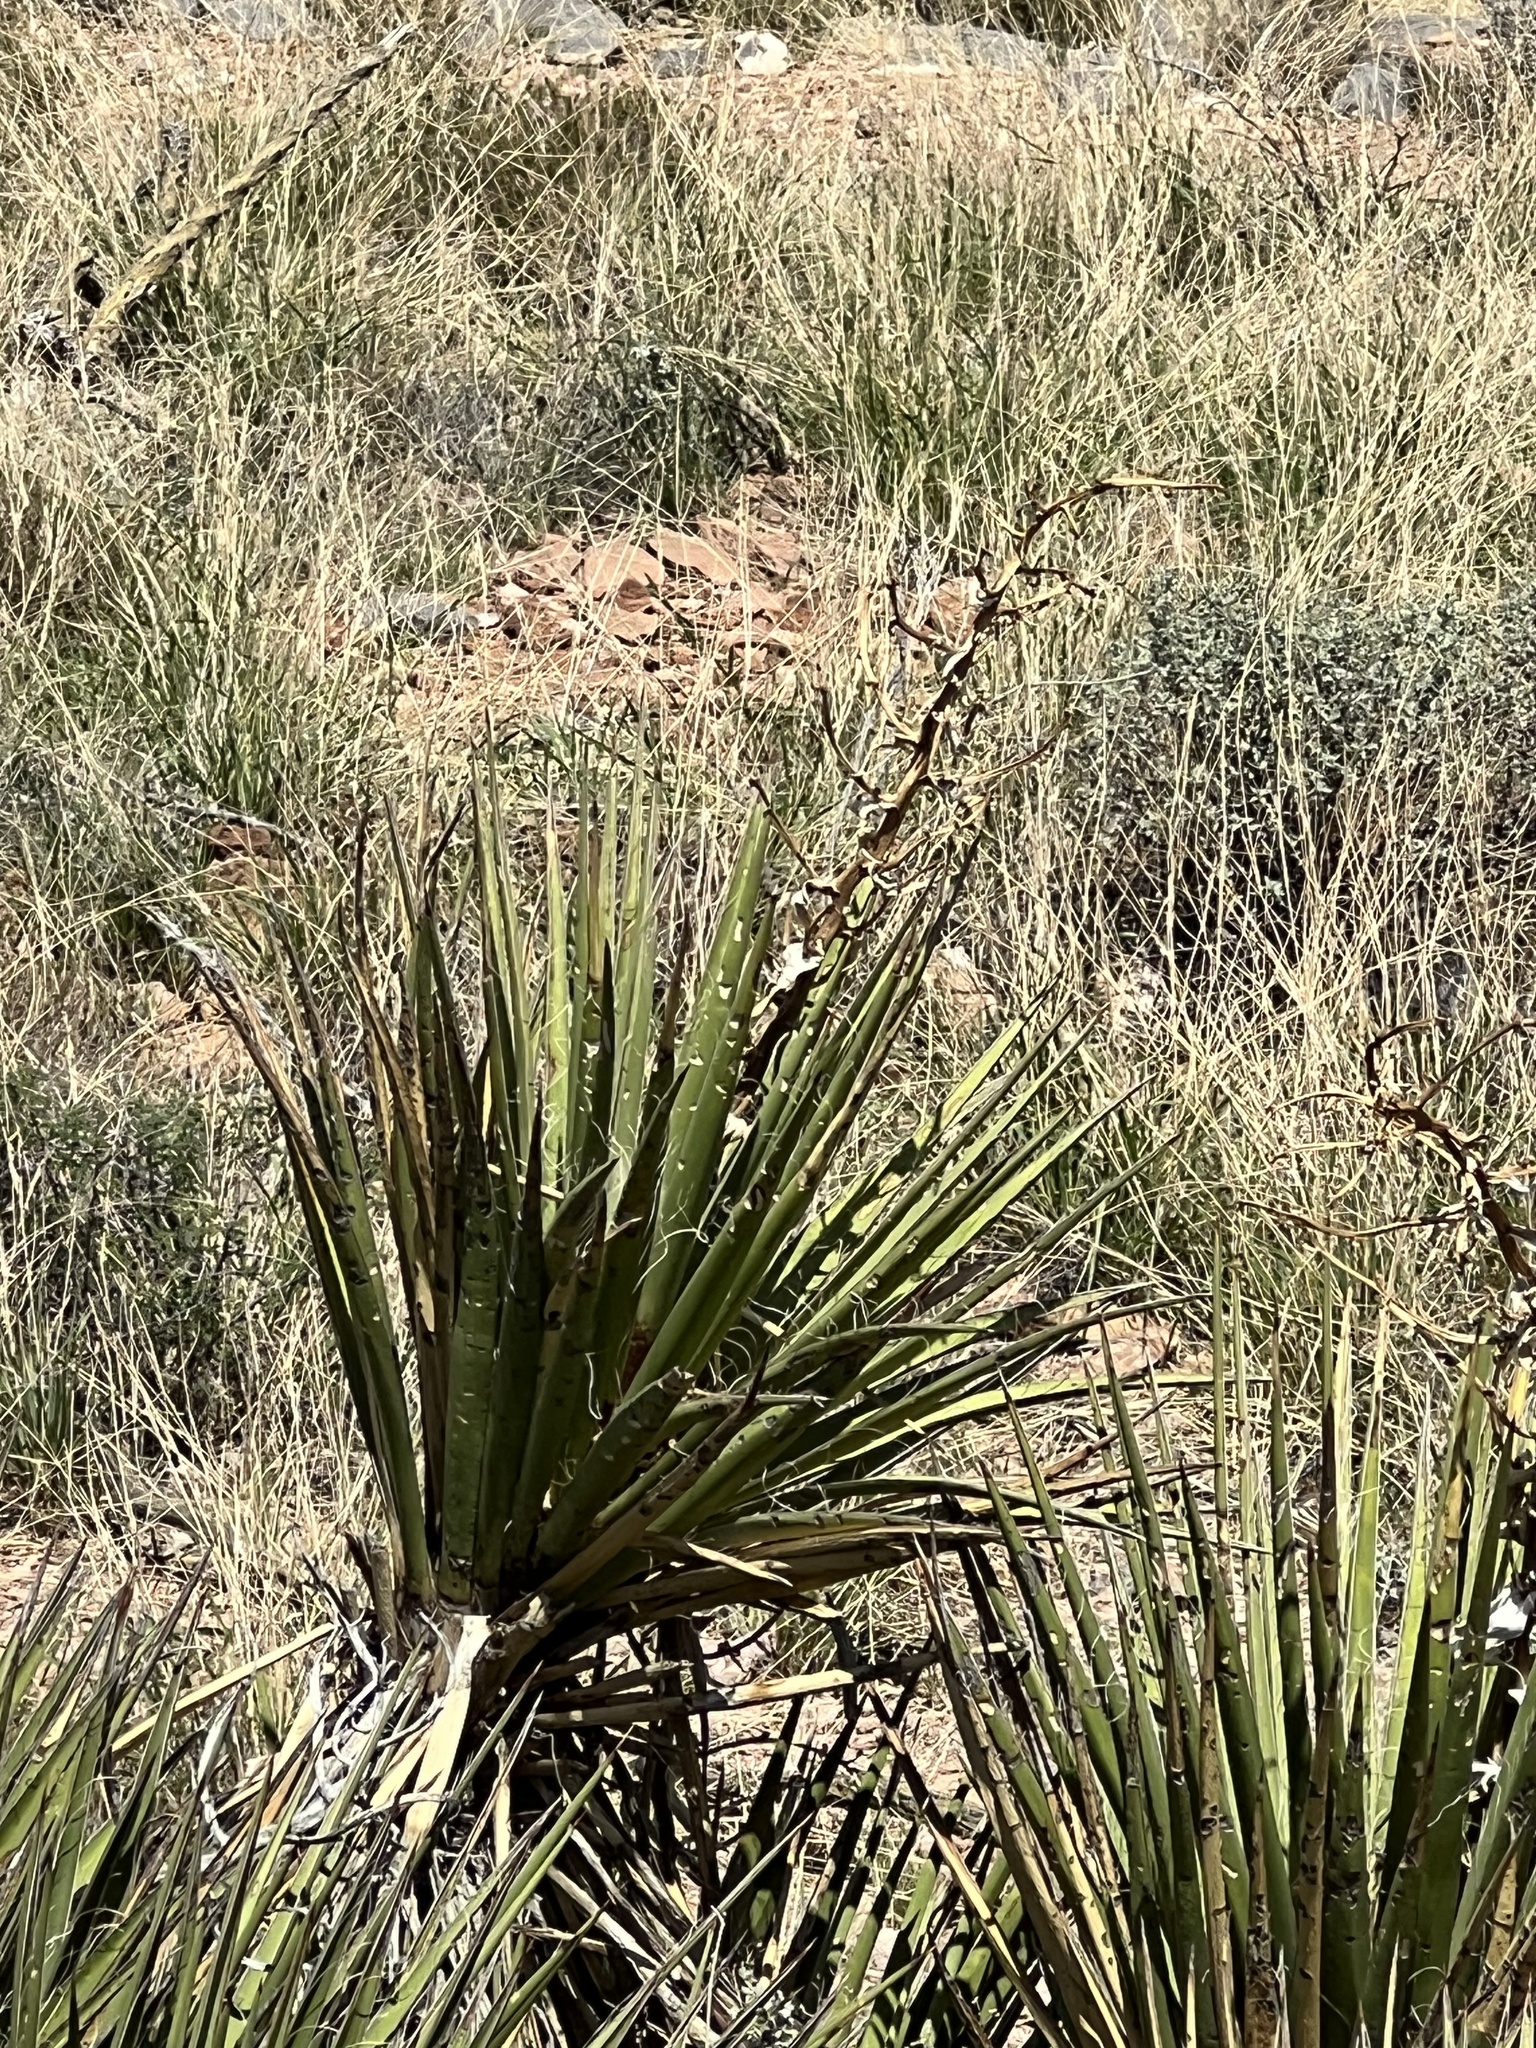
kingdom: Plantae
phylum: Tracheophyta
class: Liliopsida
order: Asparagales
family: Asparagaceae
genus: Yucca
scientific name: Yucca baccata
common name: Banana yucca
